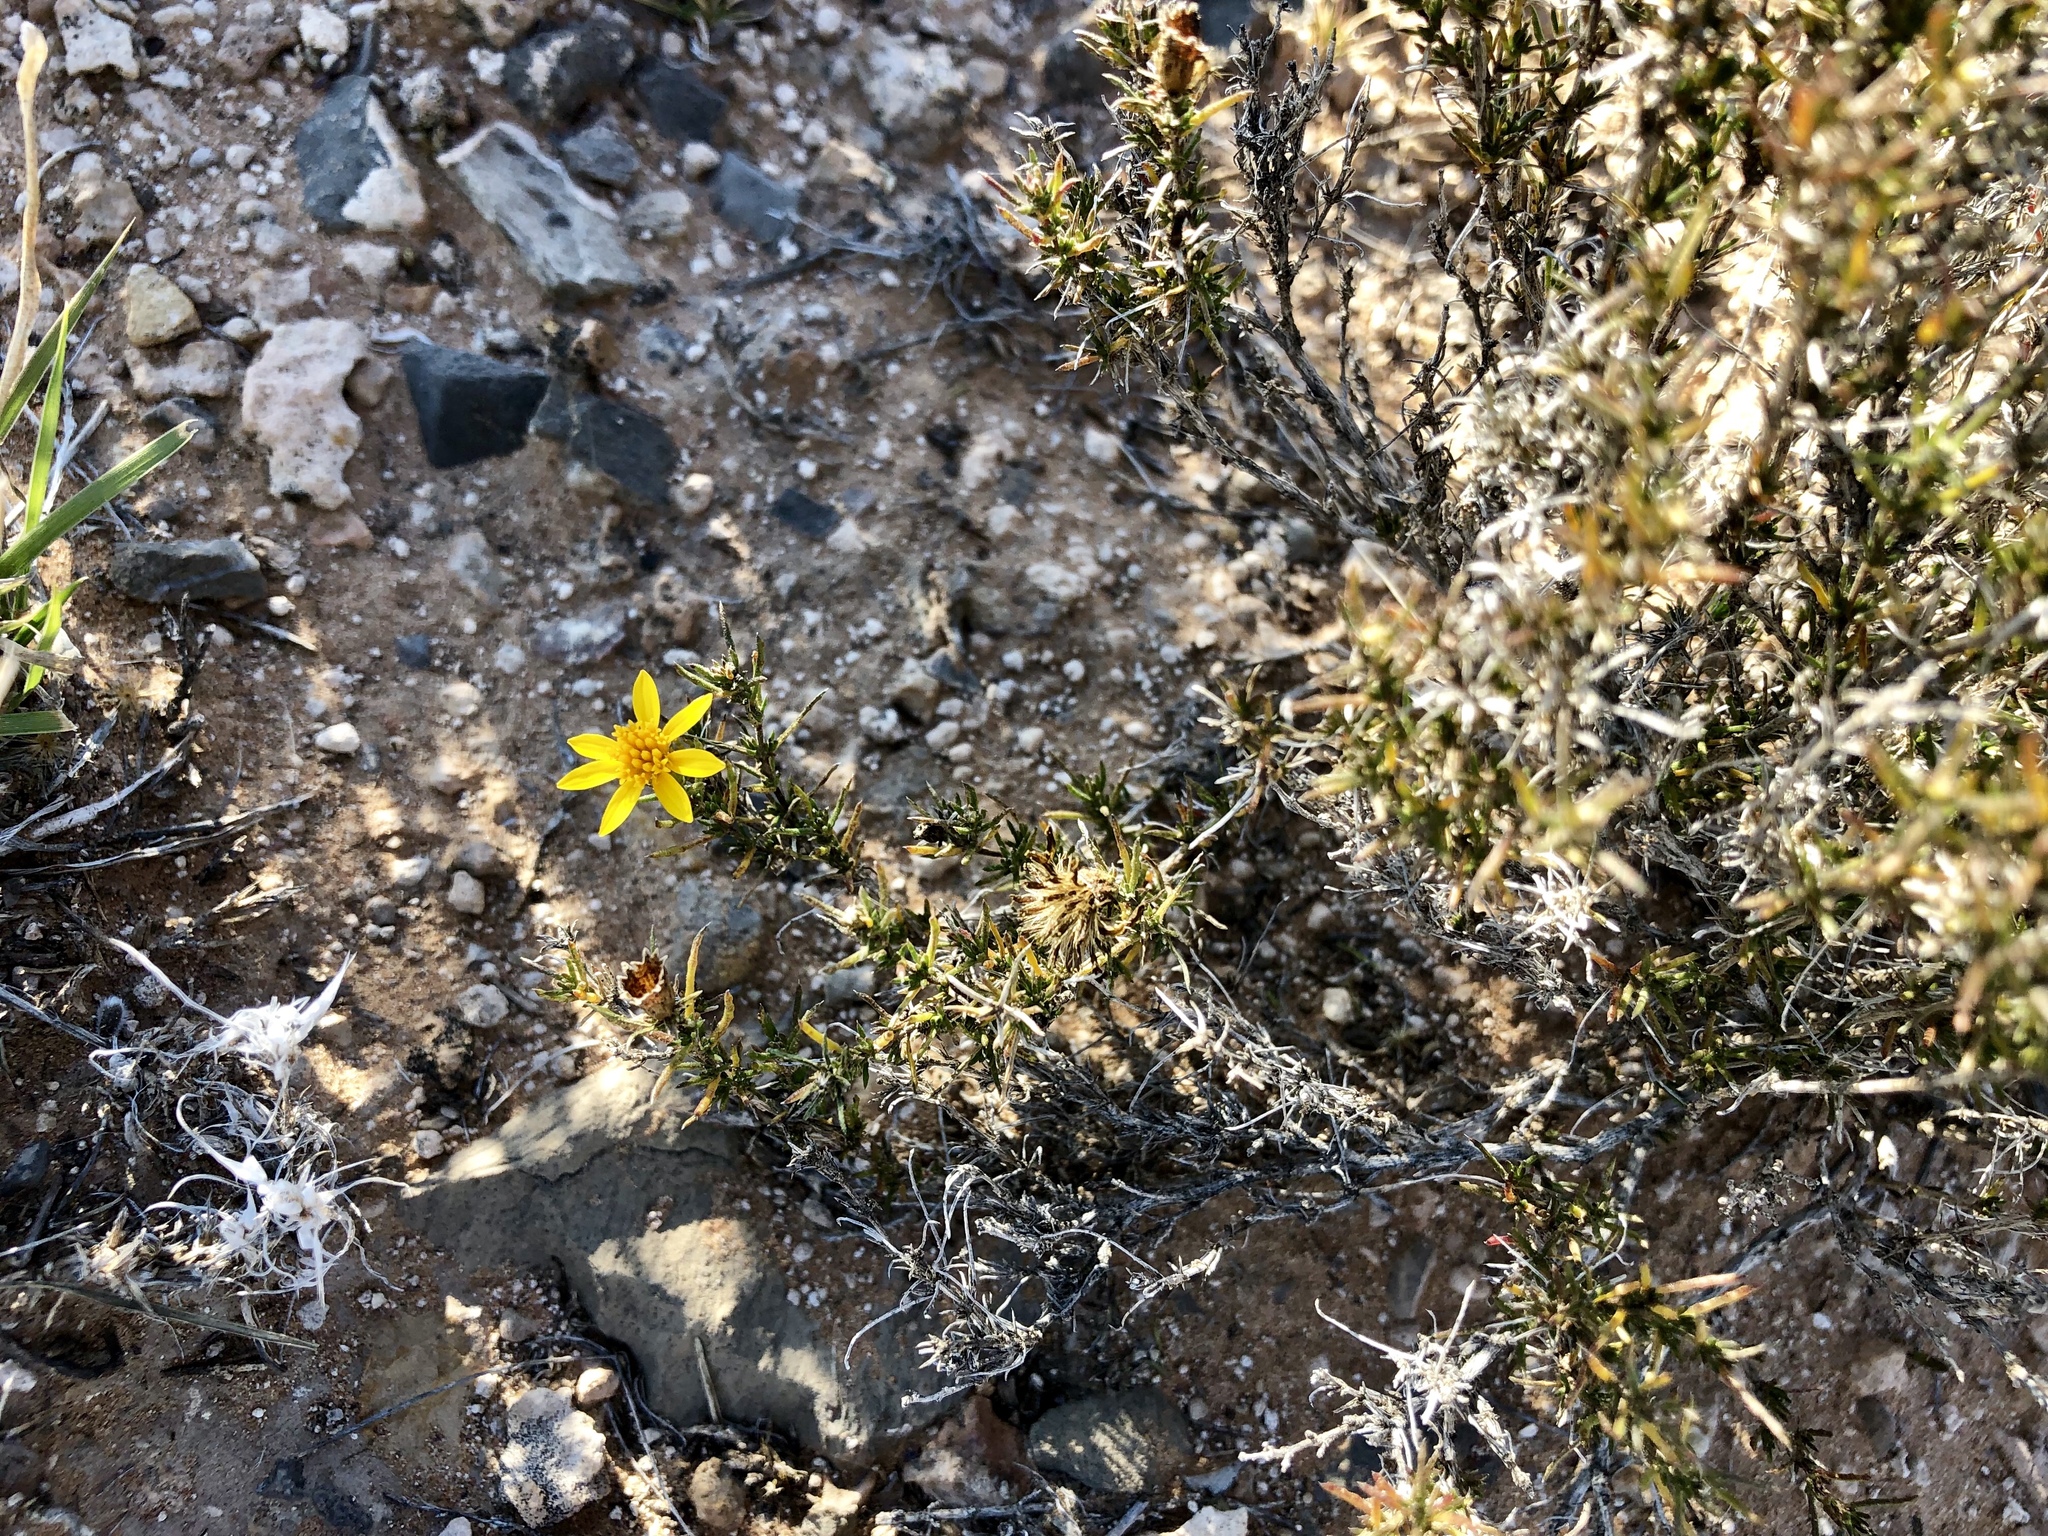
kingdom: Plantae
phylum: Tracheophyta
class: Magnoliopsida
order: Asterales
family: Asteraceae
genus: Thymophylla
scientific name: Thymophylla acerosa
